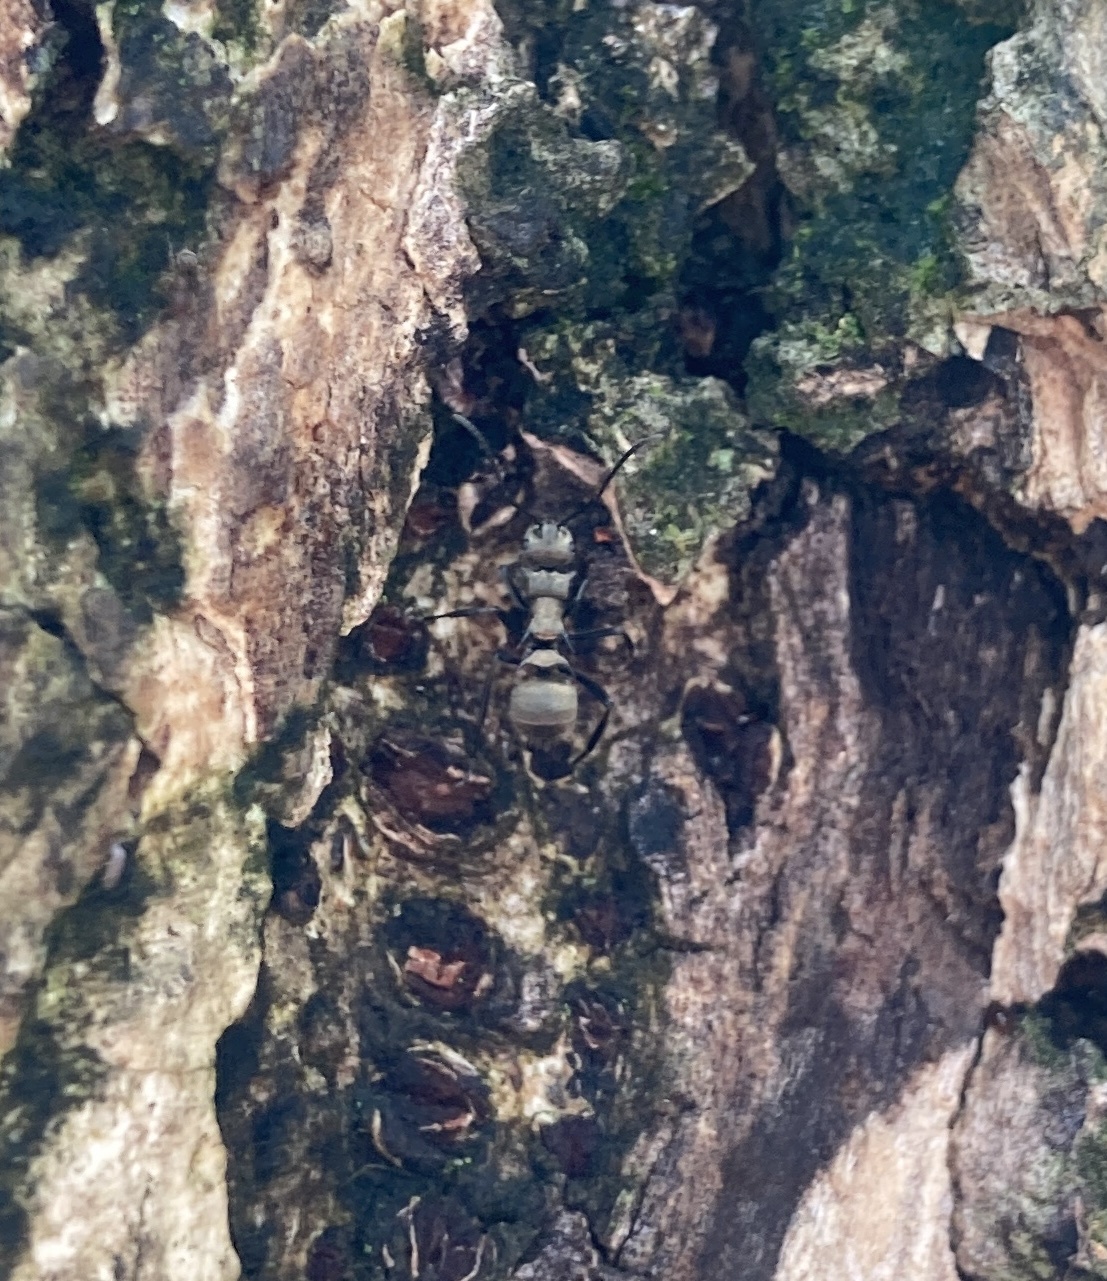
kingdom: Animalia
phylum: Arthropoda
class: Insecta
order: Hymenoptera
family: Formicidae
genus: Polyrhachis
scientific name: Polyrhachis cupreata
